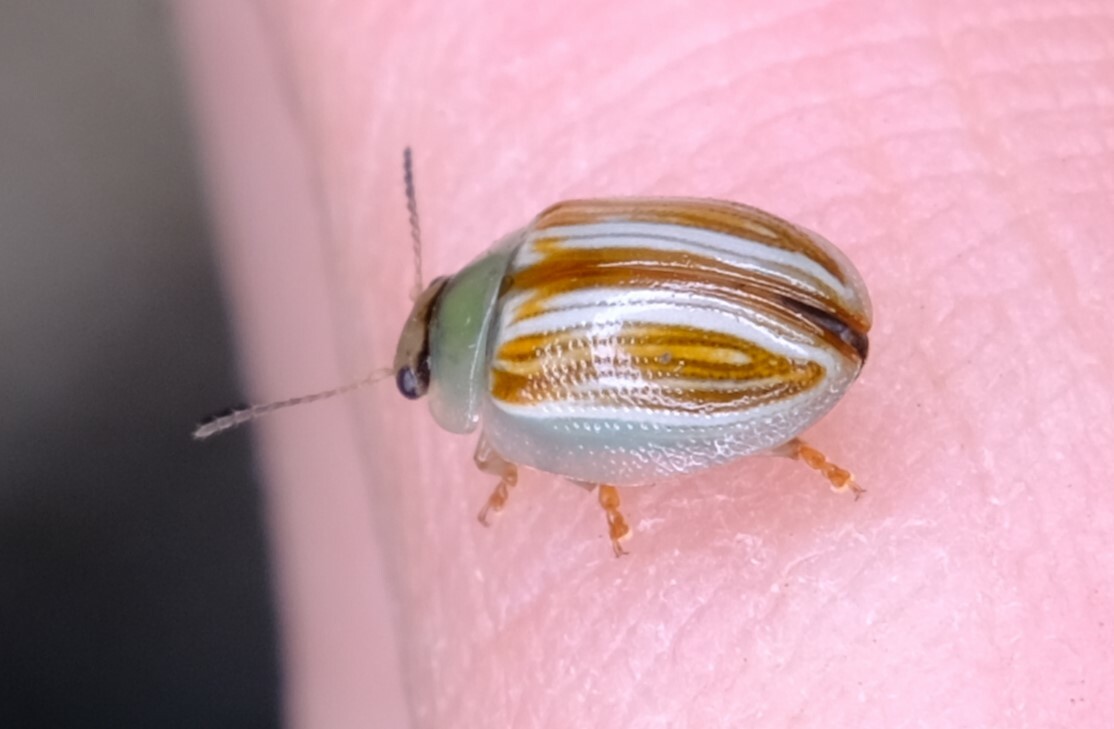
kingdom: Animalia
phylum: Arthropoda
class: Insecta
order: Coleoptera
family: Chrysomelidae
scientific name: Chrysomelidae
